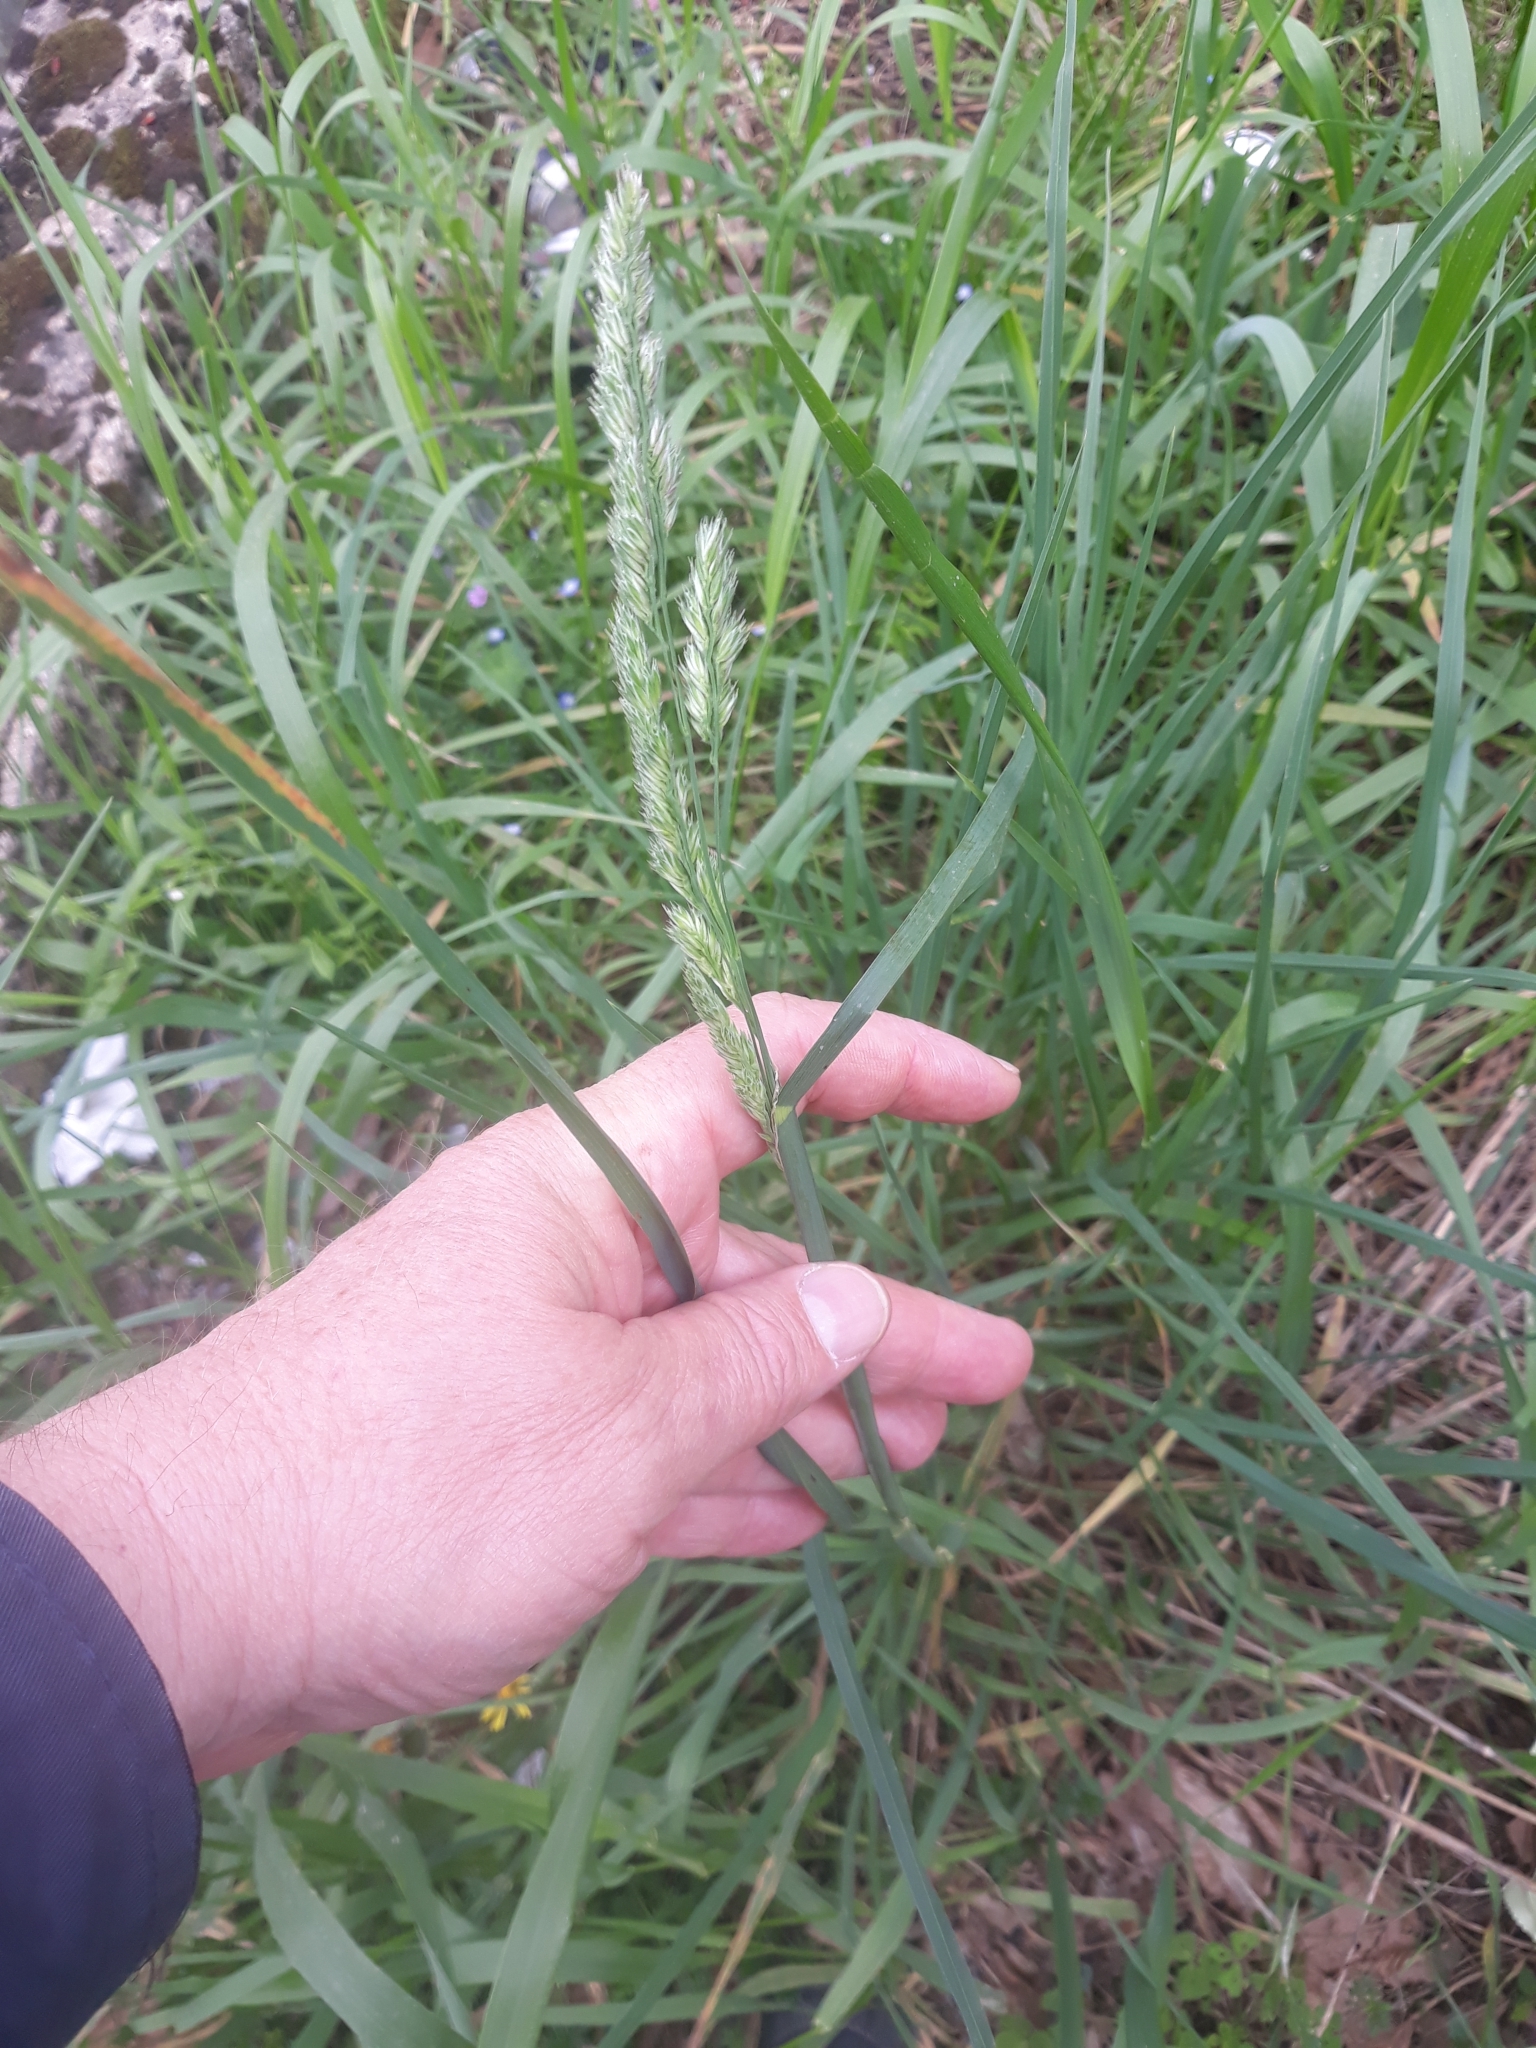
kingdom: Plantae
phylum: Tracheophyta
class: Liliopsida
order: Poales
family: Poaceae
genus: Dactylis
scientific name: Dactylis glomerata
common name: Orchardgrass
